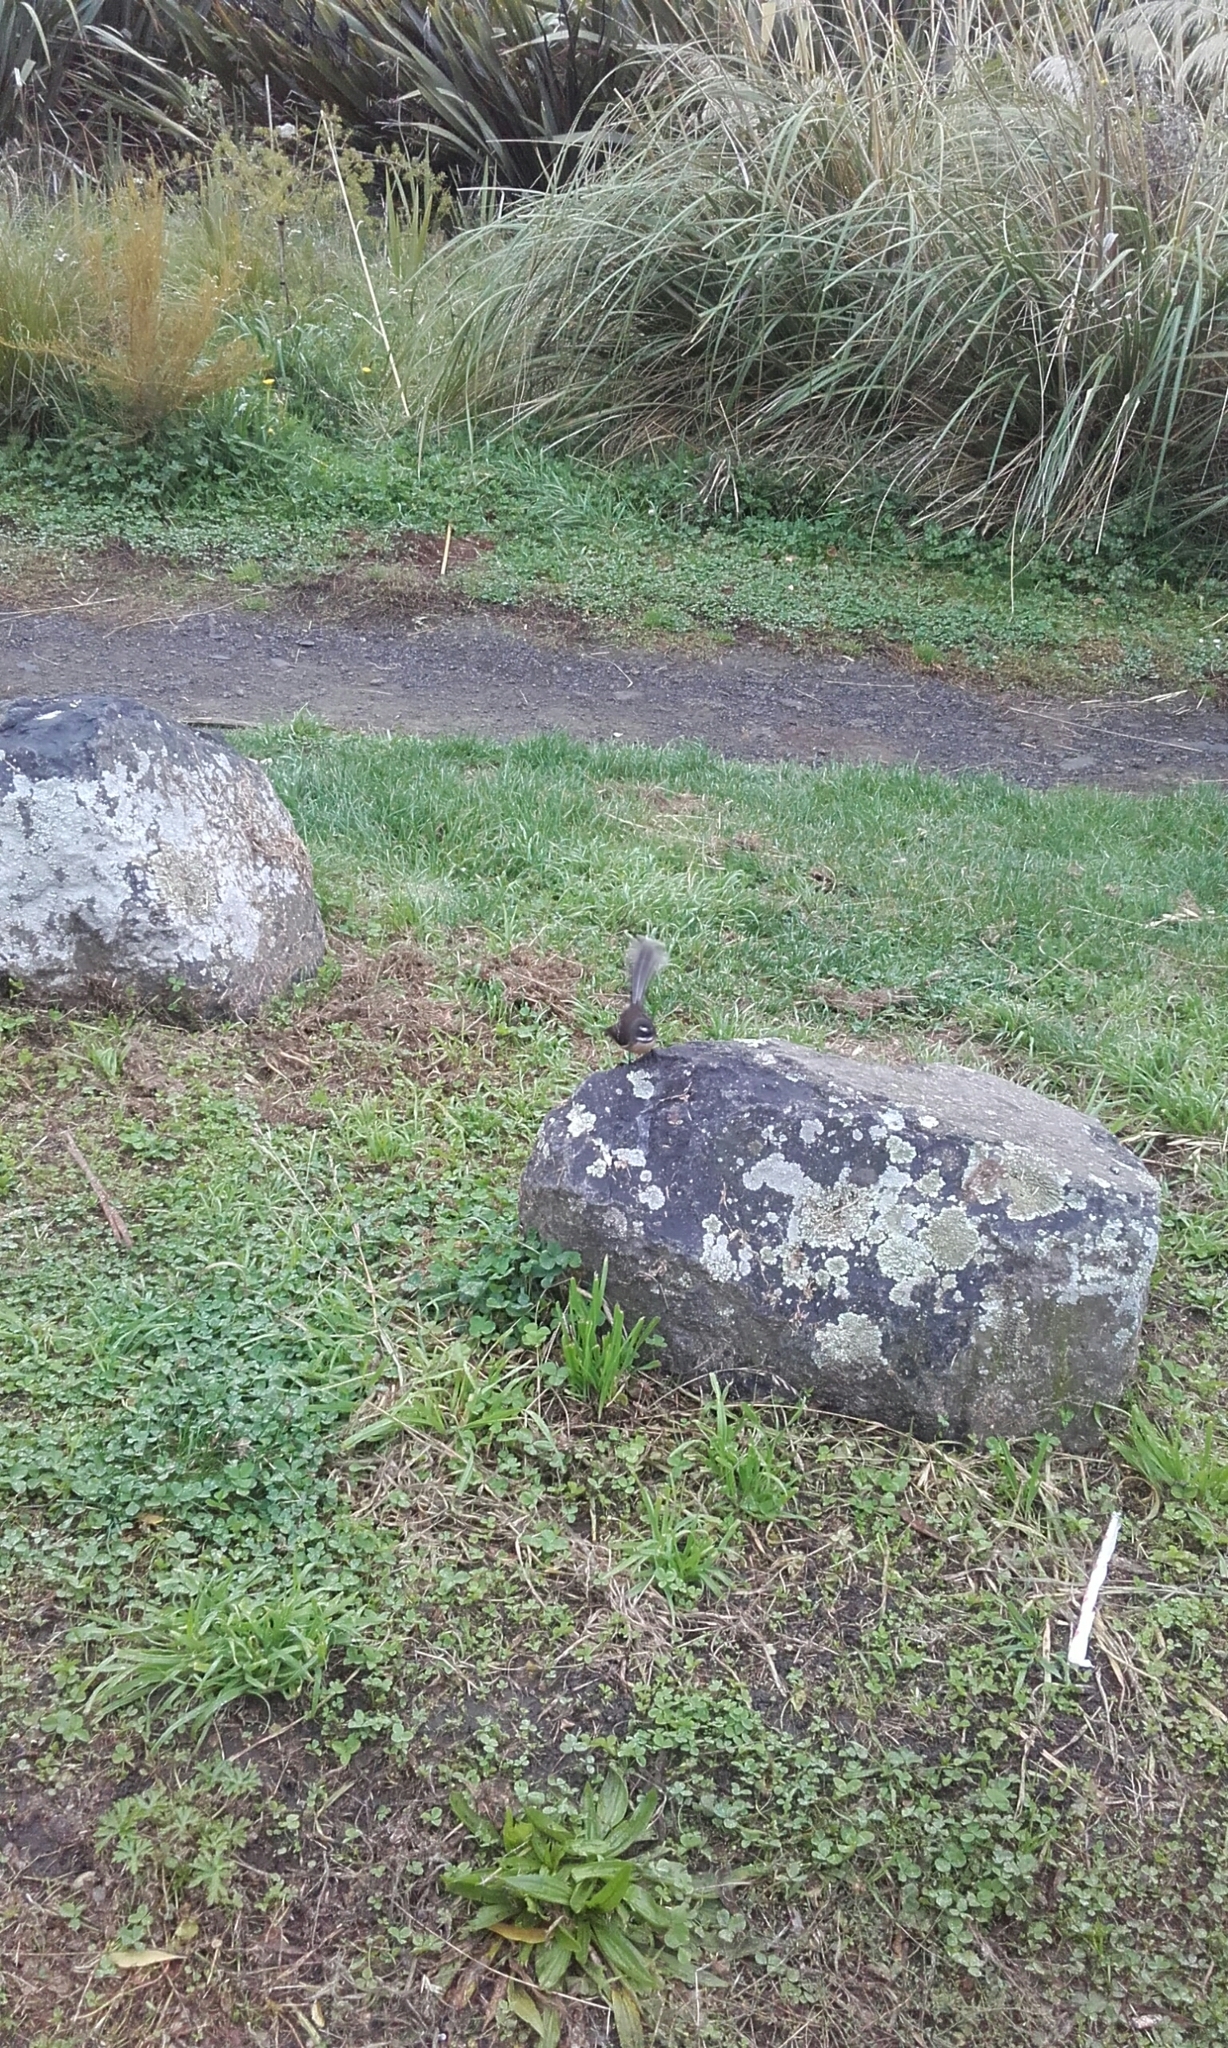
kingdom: Animalia
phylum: Chordata
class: Aves
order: Passeriformes
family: Rhipiduridae
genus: Rhipidura
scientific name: Rhipidura fuliginosa
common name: New zealand fantail
